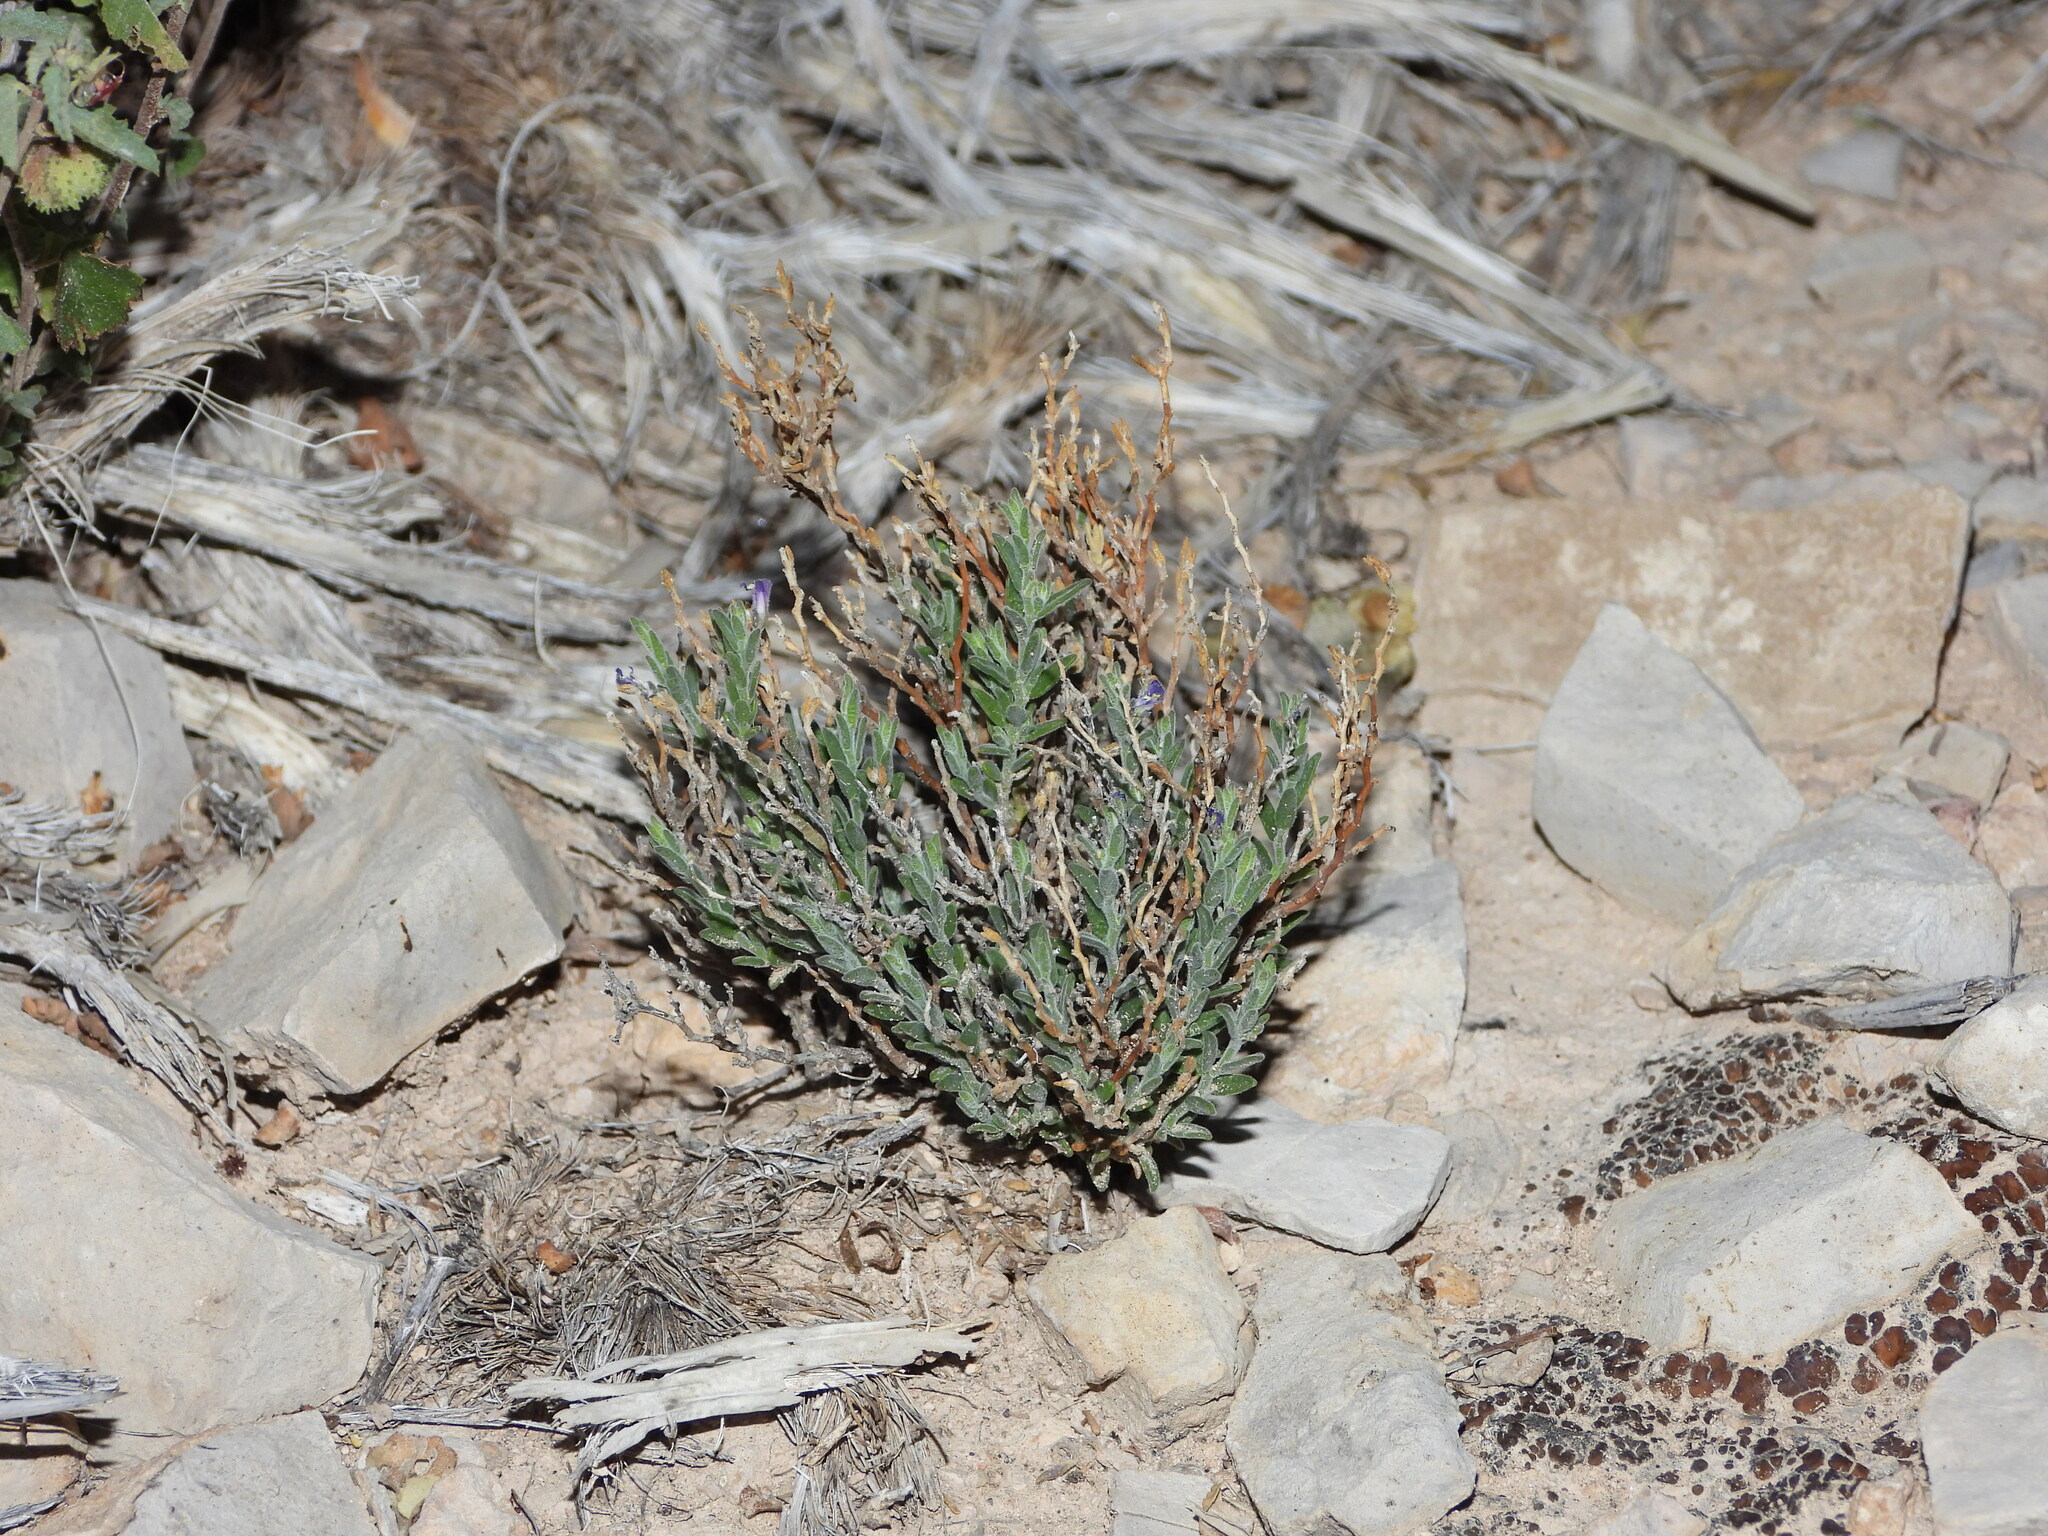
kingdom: Plantae
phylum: Tracheophyta
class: Magnoliopsida
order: Fabales
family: Polygalaceae
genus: Hebecarpa
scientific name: Hebecarpa macradenia
